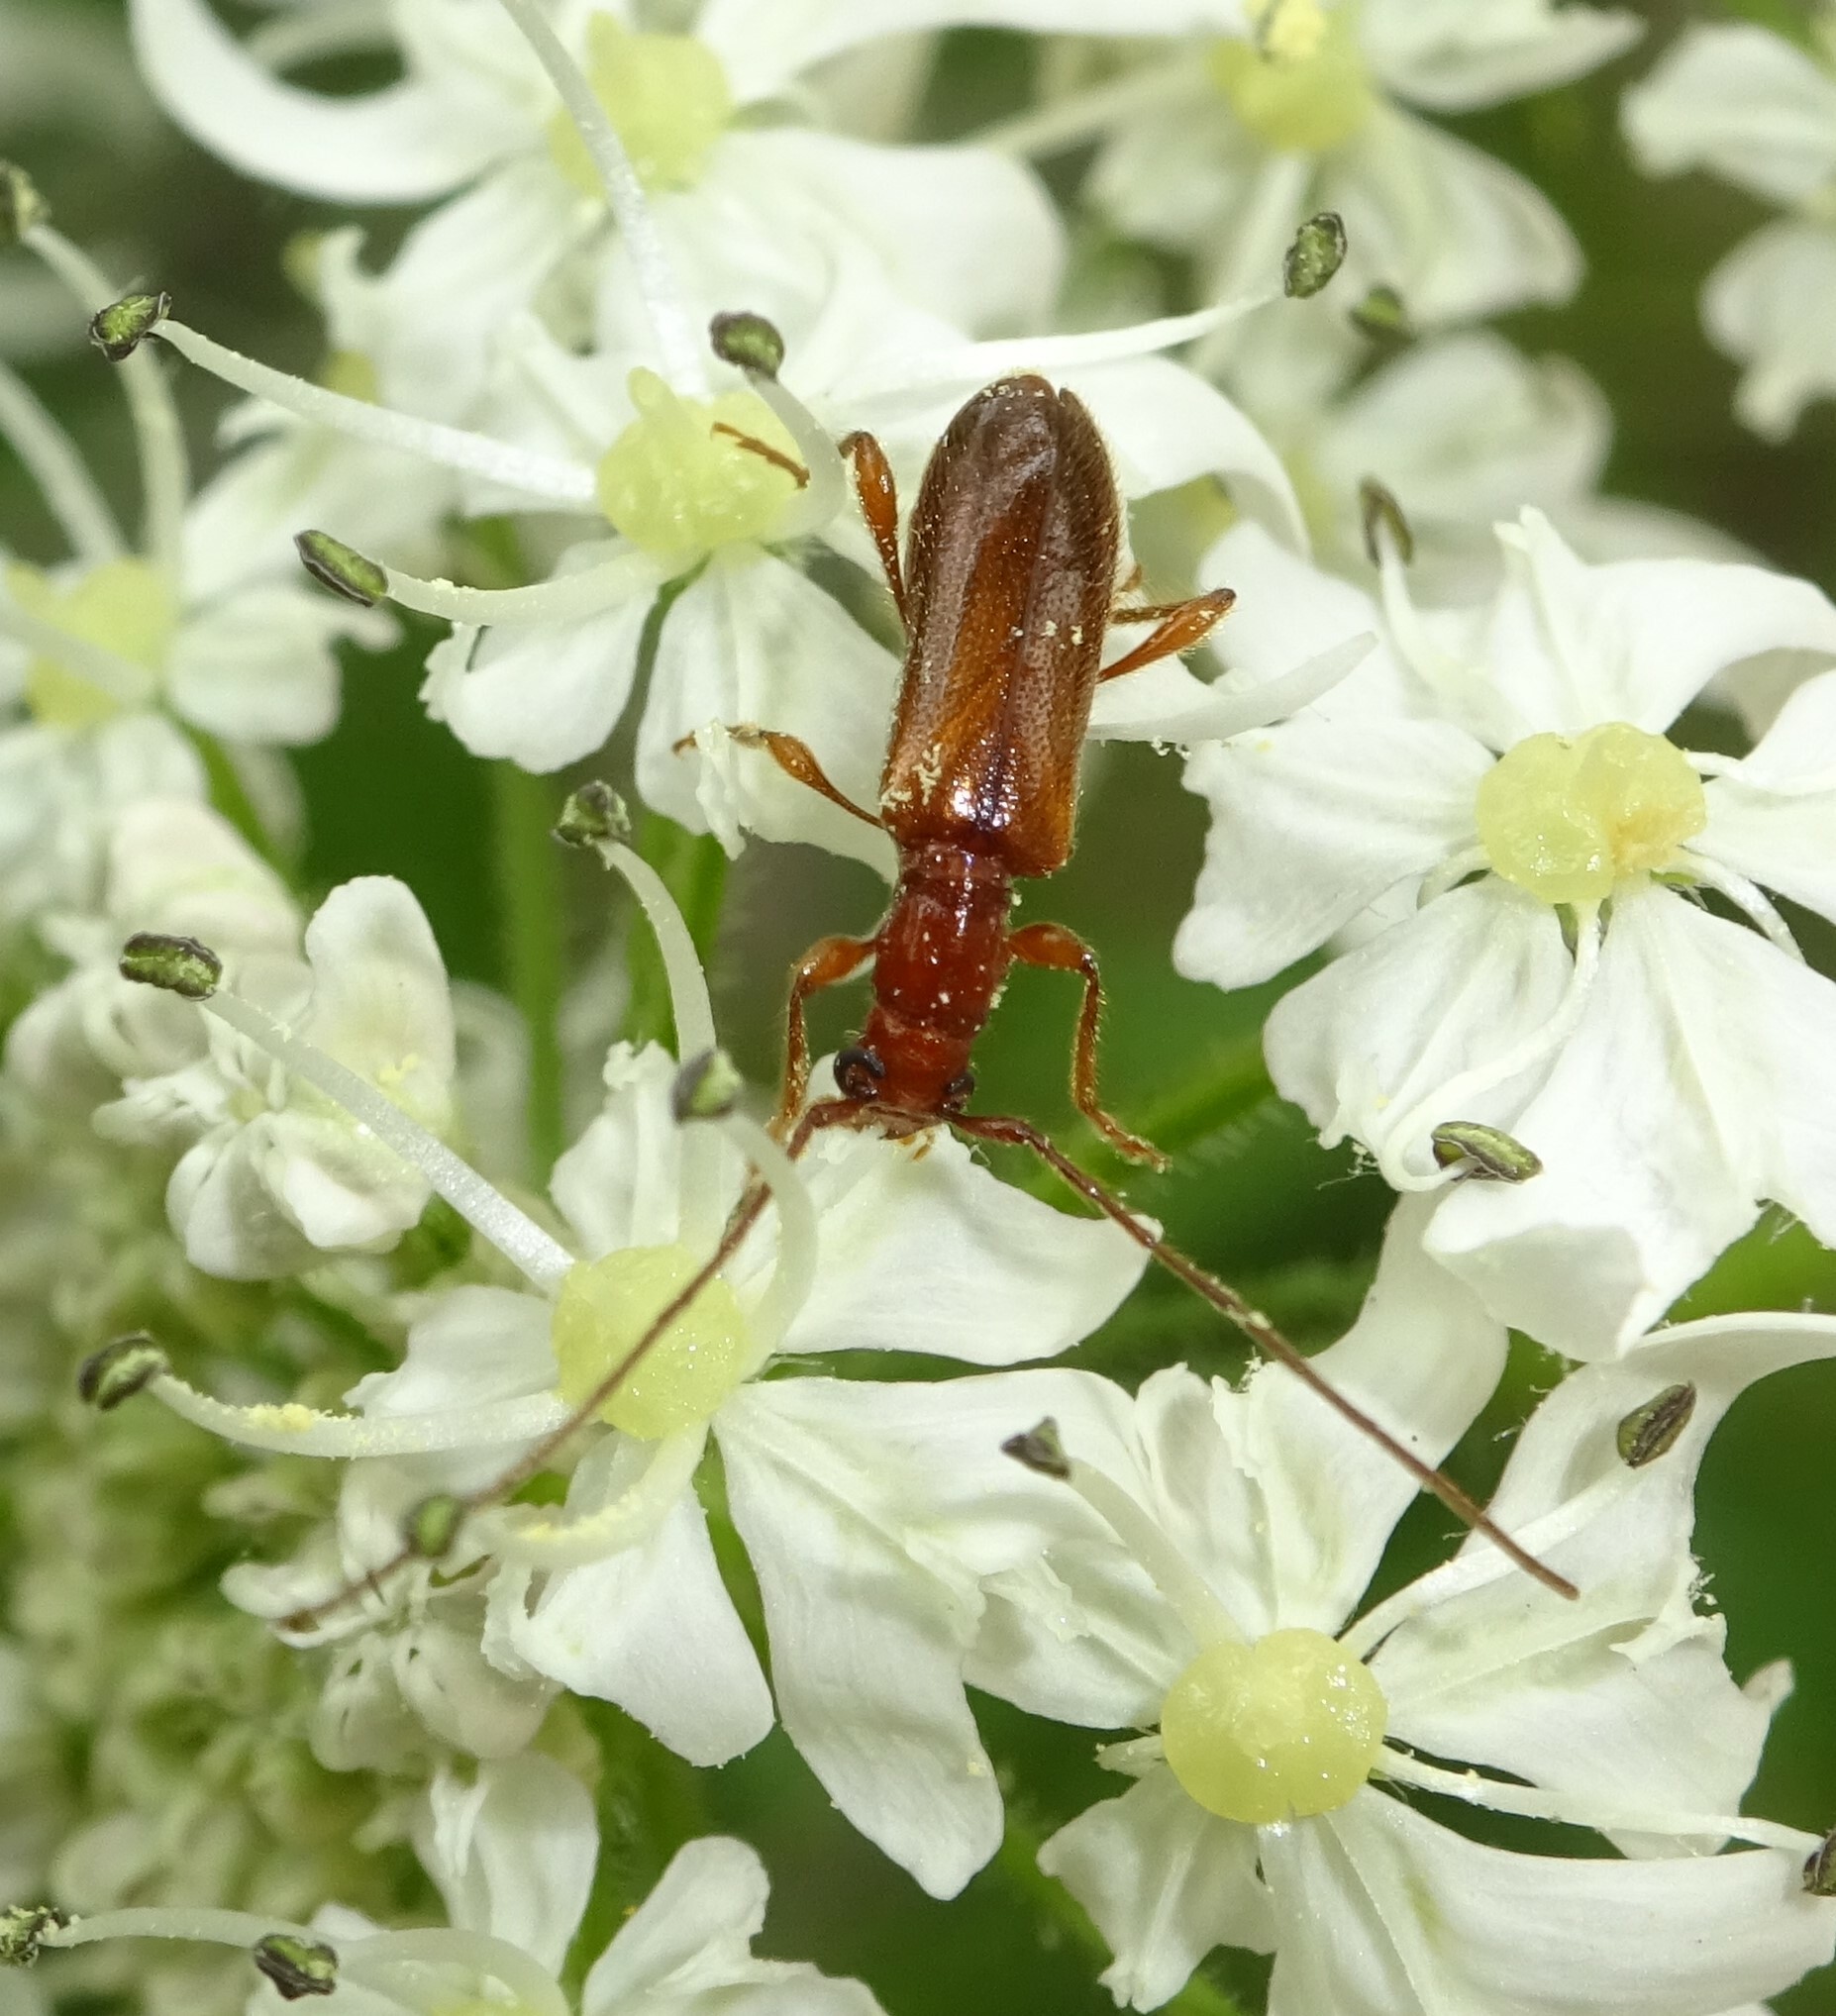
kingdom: Animalia
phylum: Arthropoda
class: Insecta
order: Coleoptera
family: Cerambycidae
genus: Obrium
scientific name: Obrium brunneum
